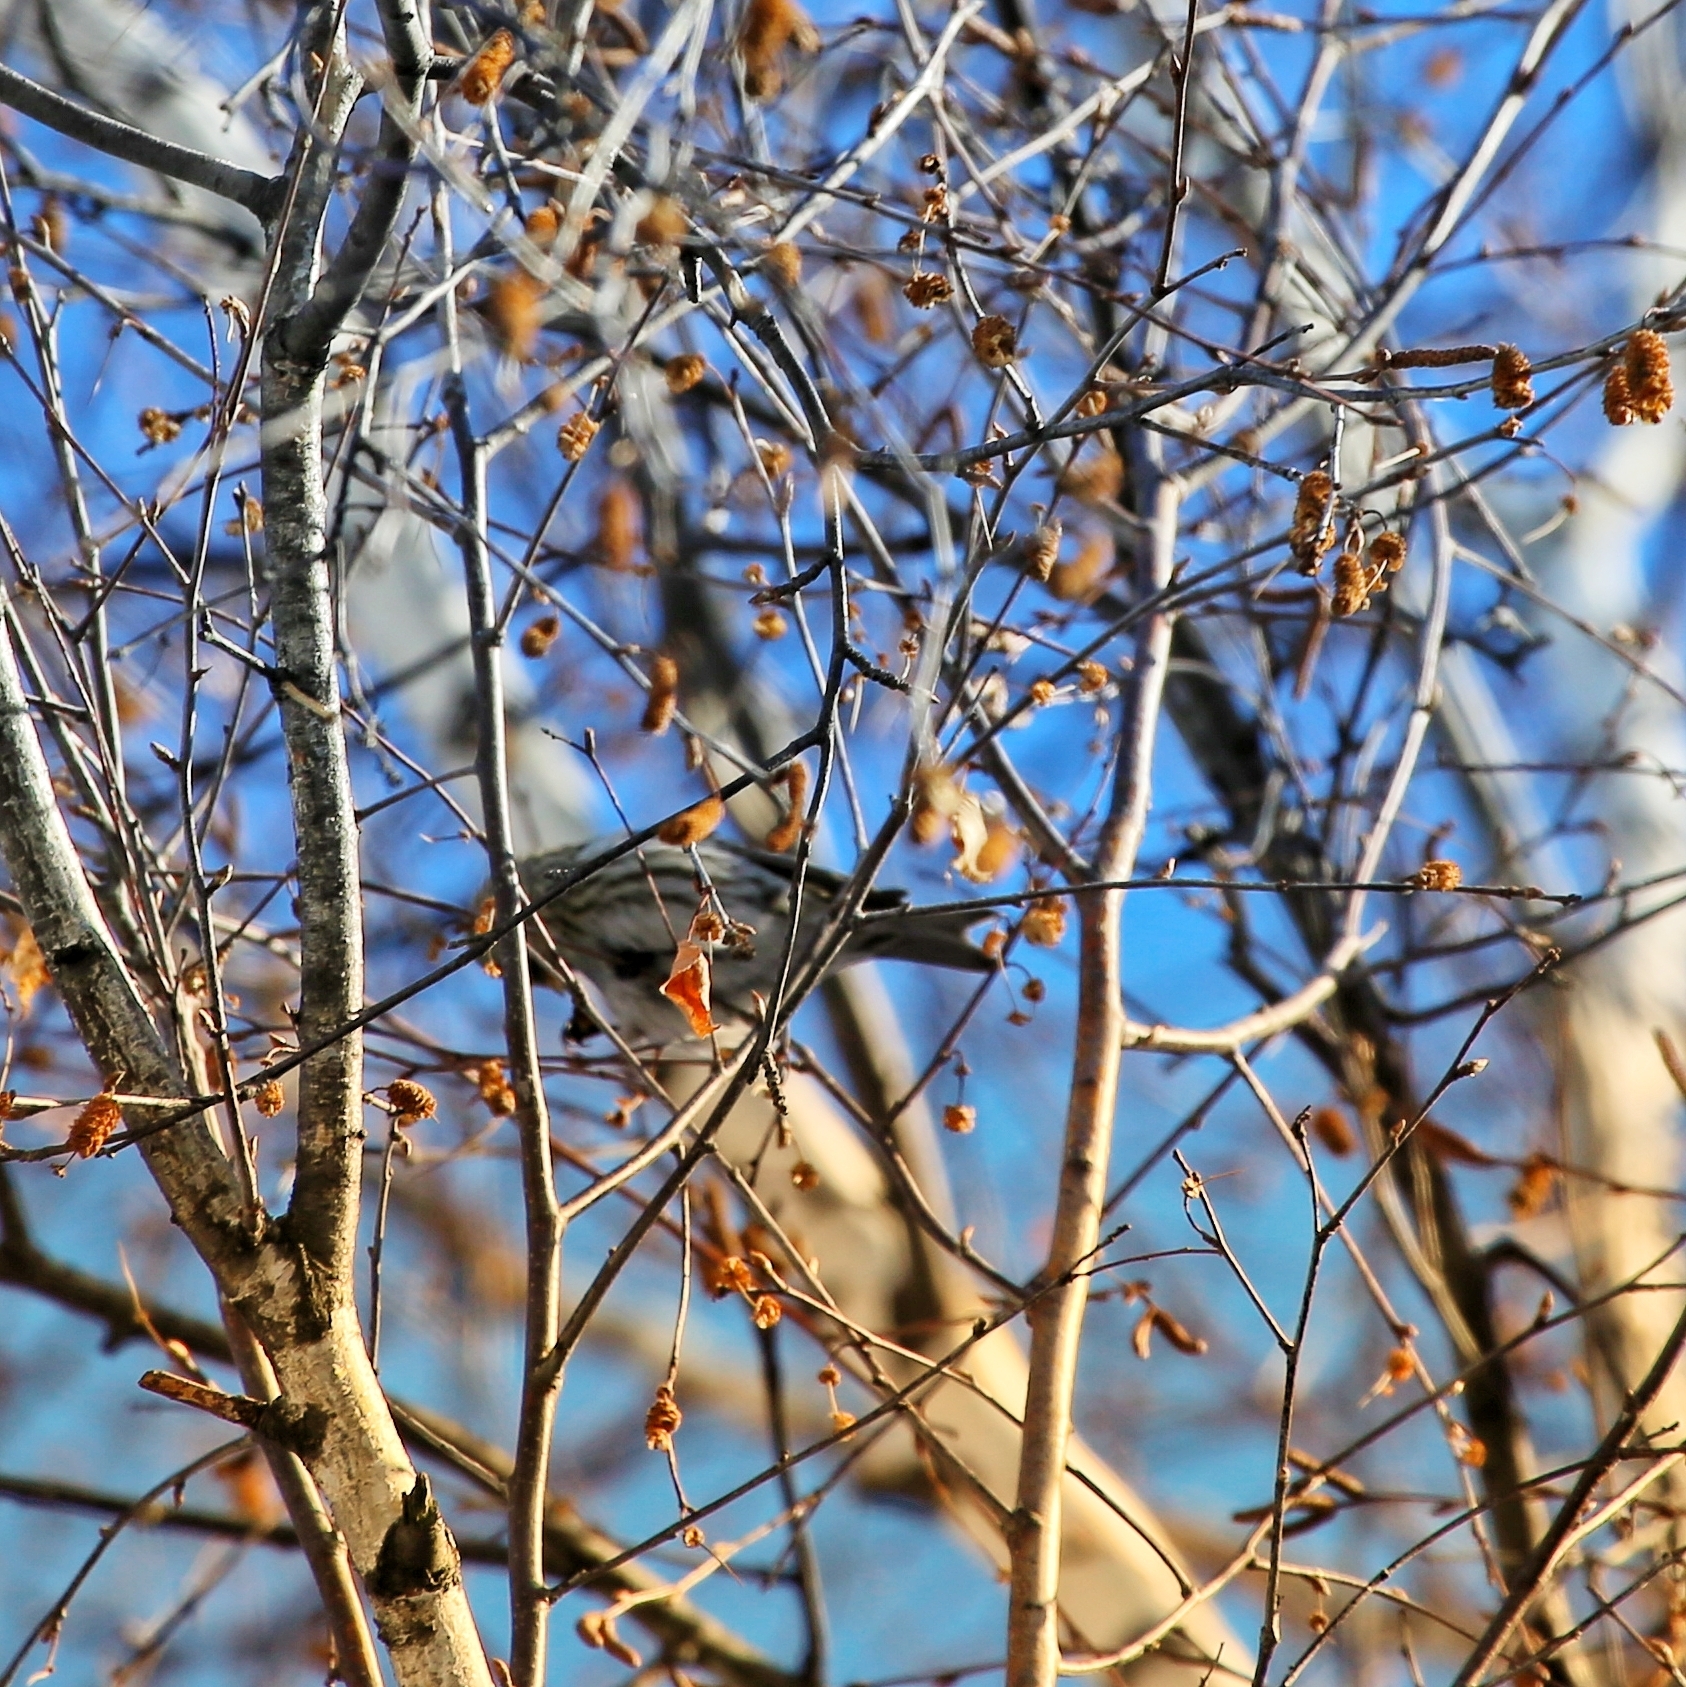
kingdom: Animalia
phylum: Chordata
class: Aves
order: Passeriformes
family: Fringillidae
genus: Acanthis
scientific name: Acanthis flammea
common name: Common redpoll
